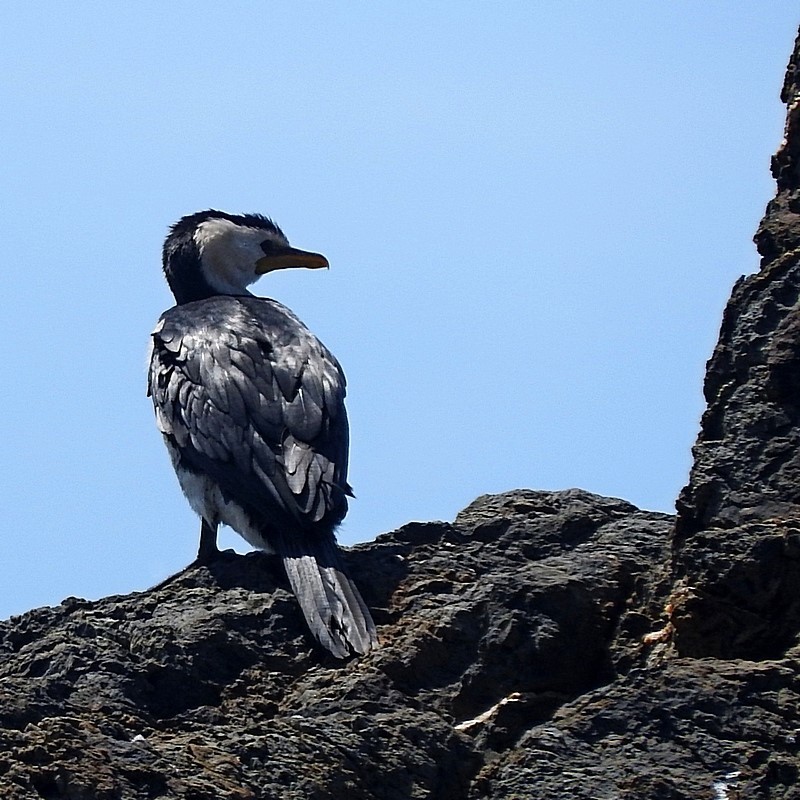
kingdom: Animalia
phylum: Chordata
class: Aves
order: Suliformes
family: Phalacrocoracidae
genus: Microcarbo
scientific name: Microcarbo melanoleucos
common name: Little pied cormorant
